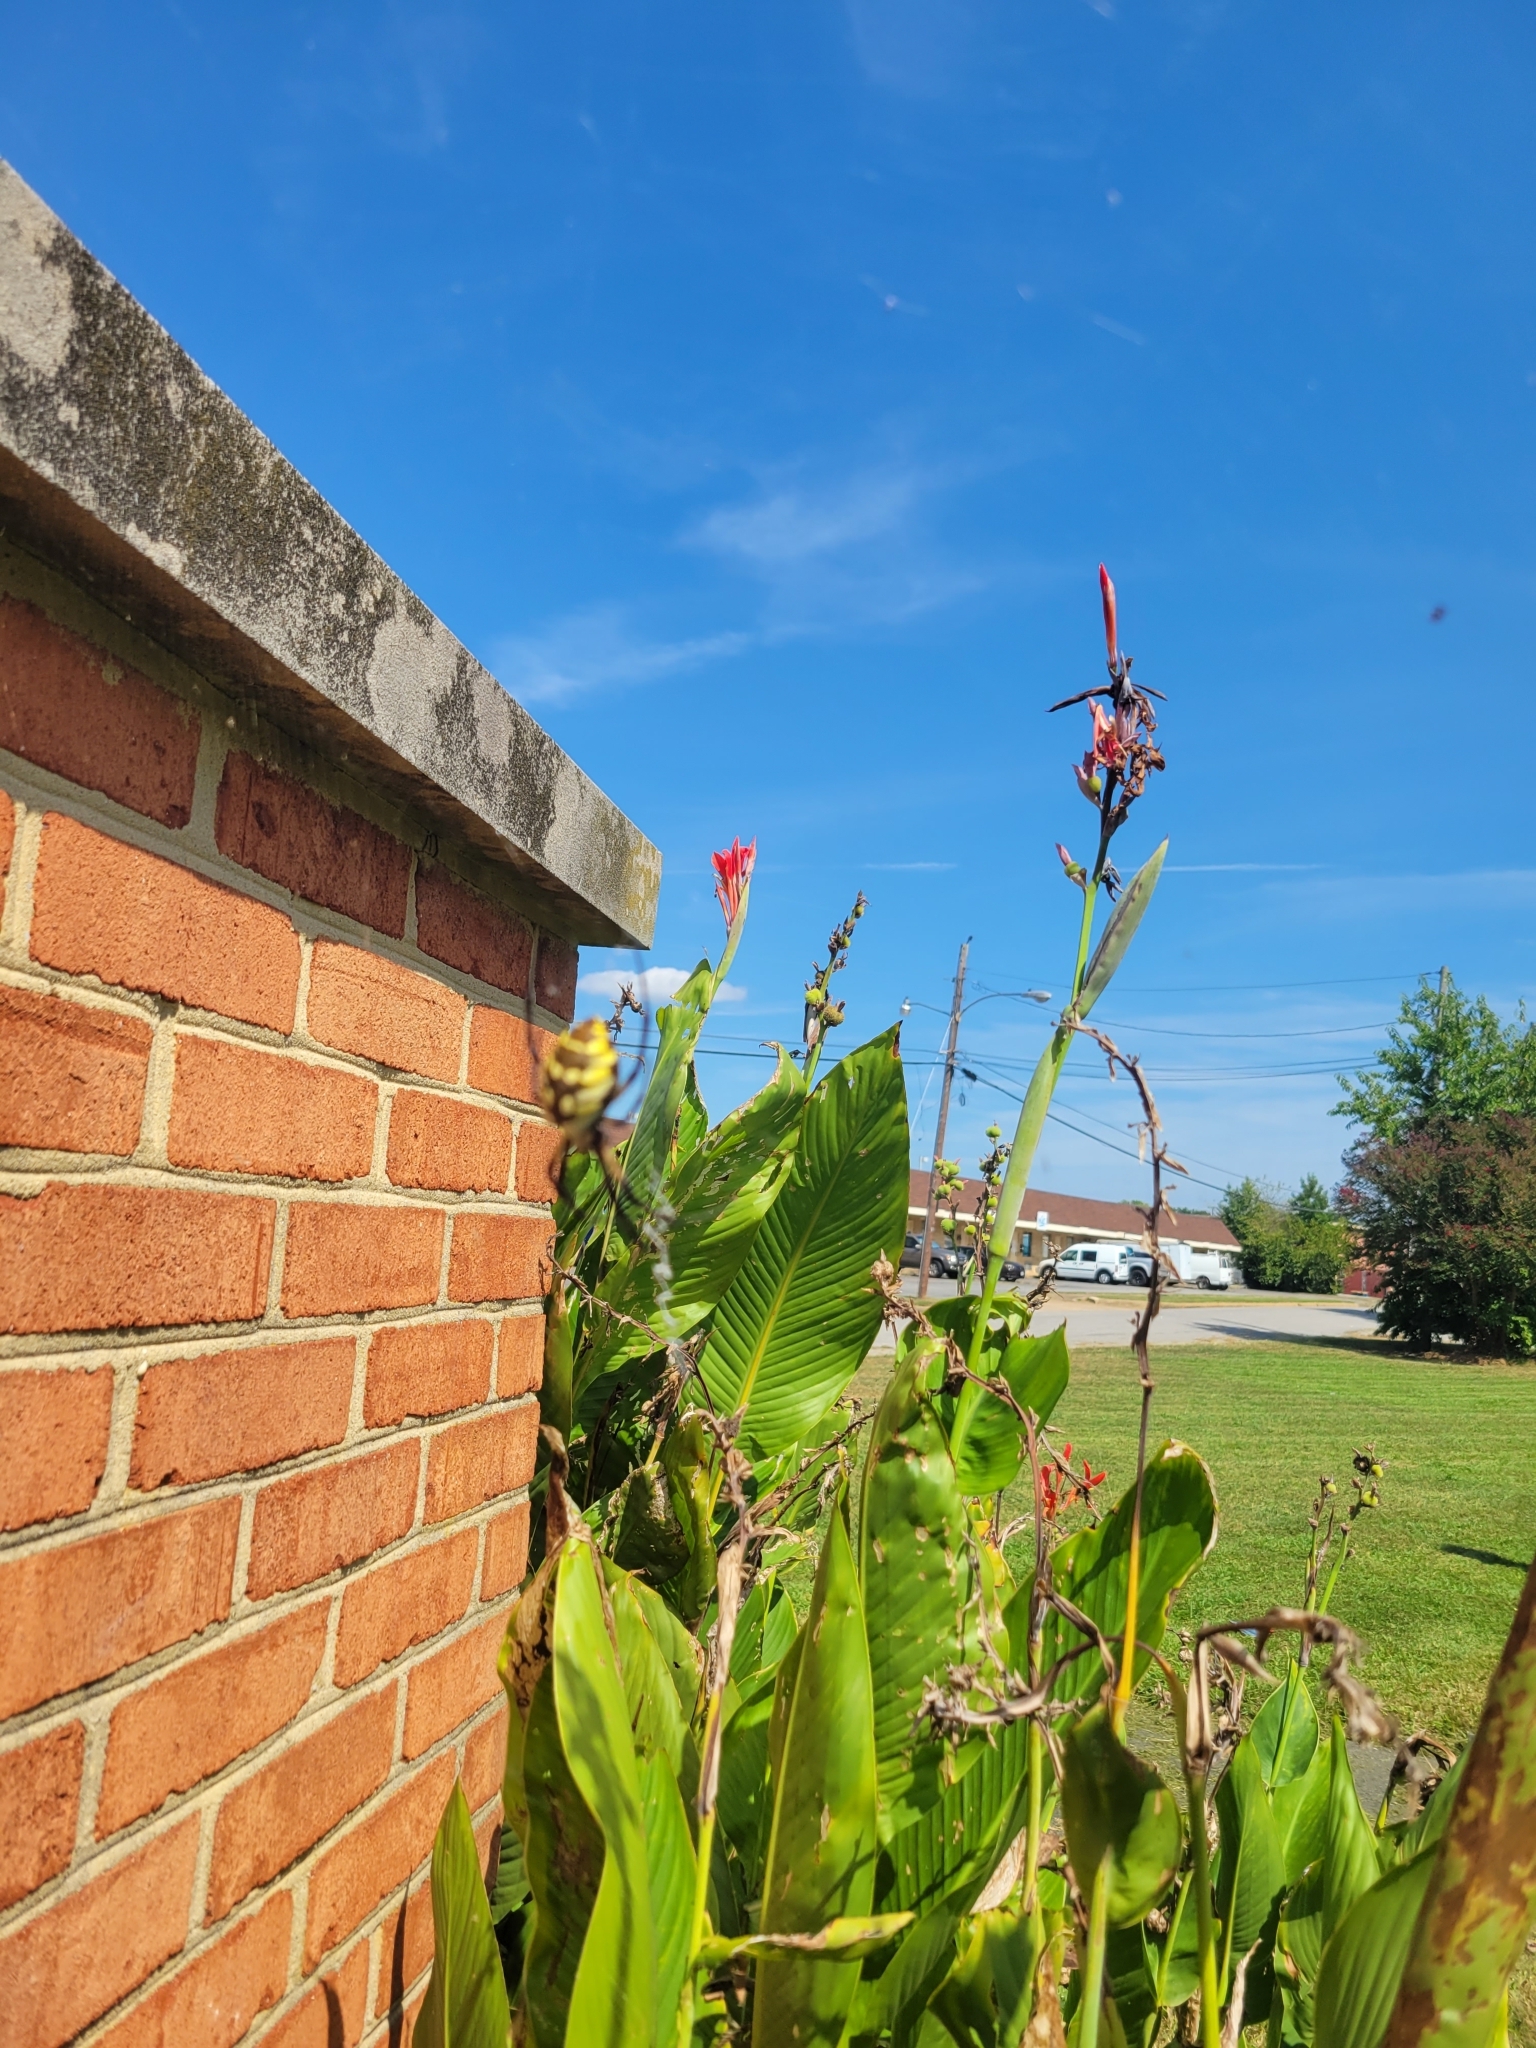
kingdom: Animalia
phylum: Arthropoda
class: Arachnida
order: Araneae
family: Araneidae
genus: Argiope
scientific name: Argiope aurantia
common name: Orb weavers
